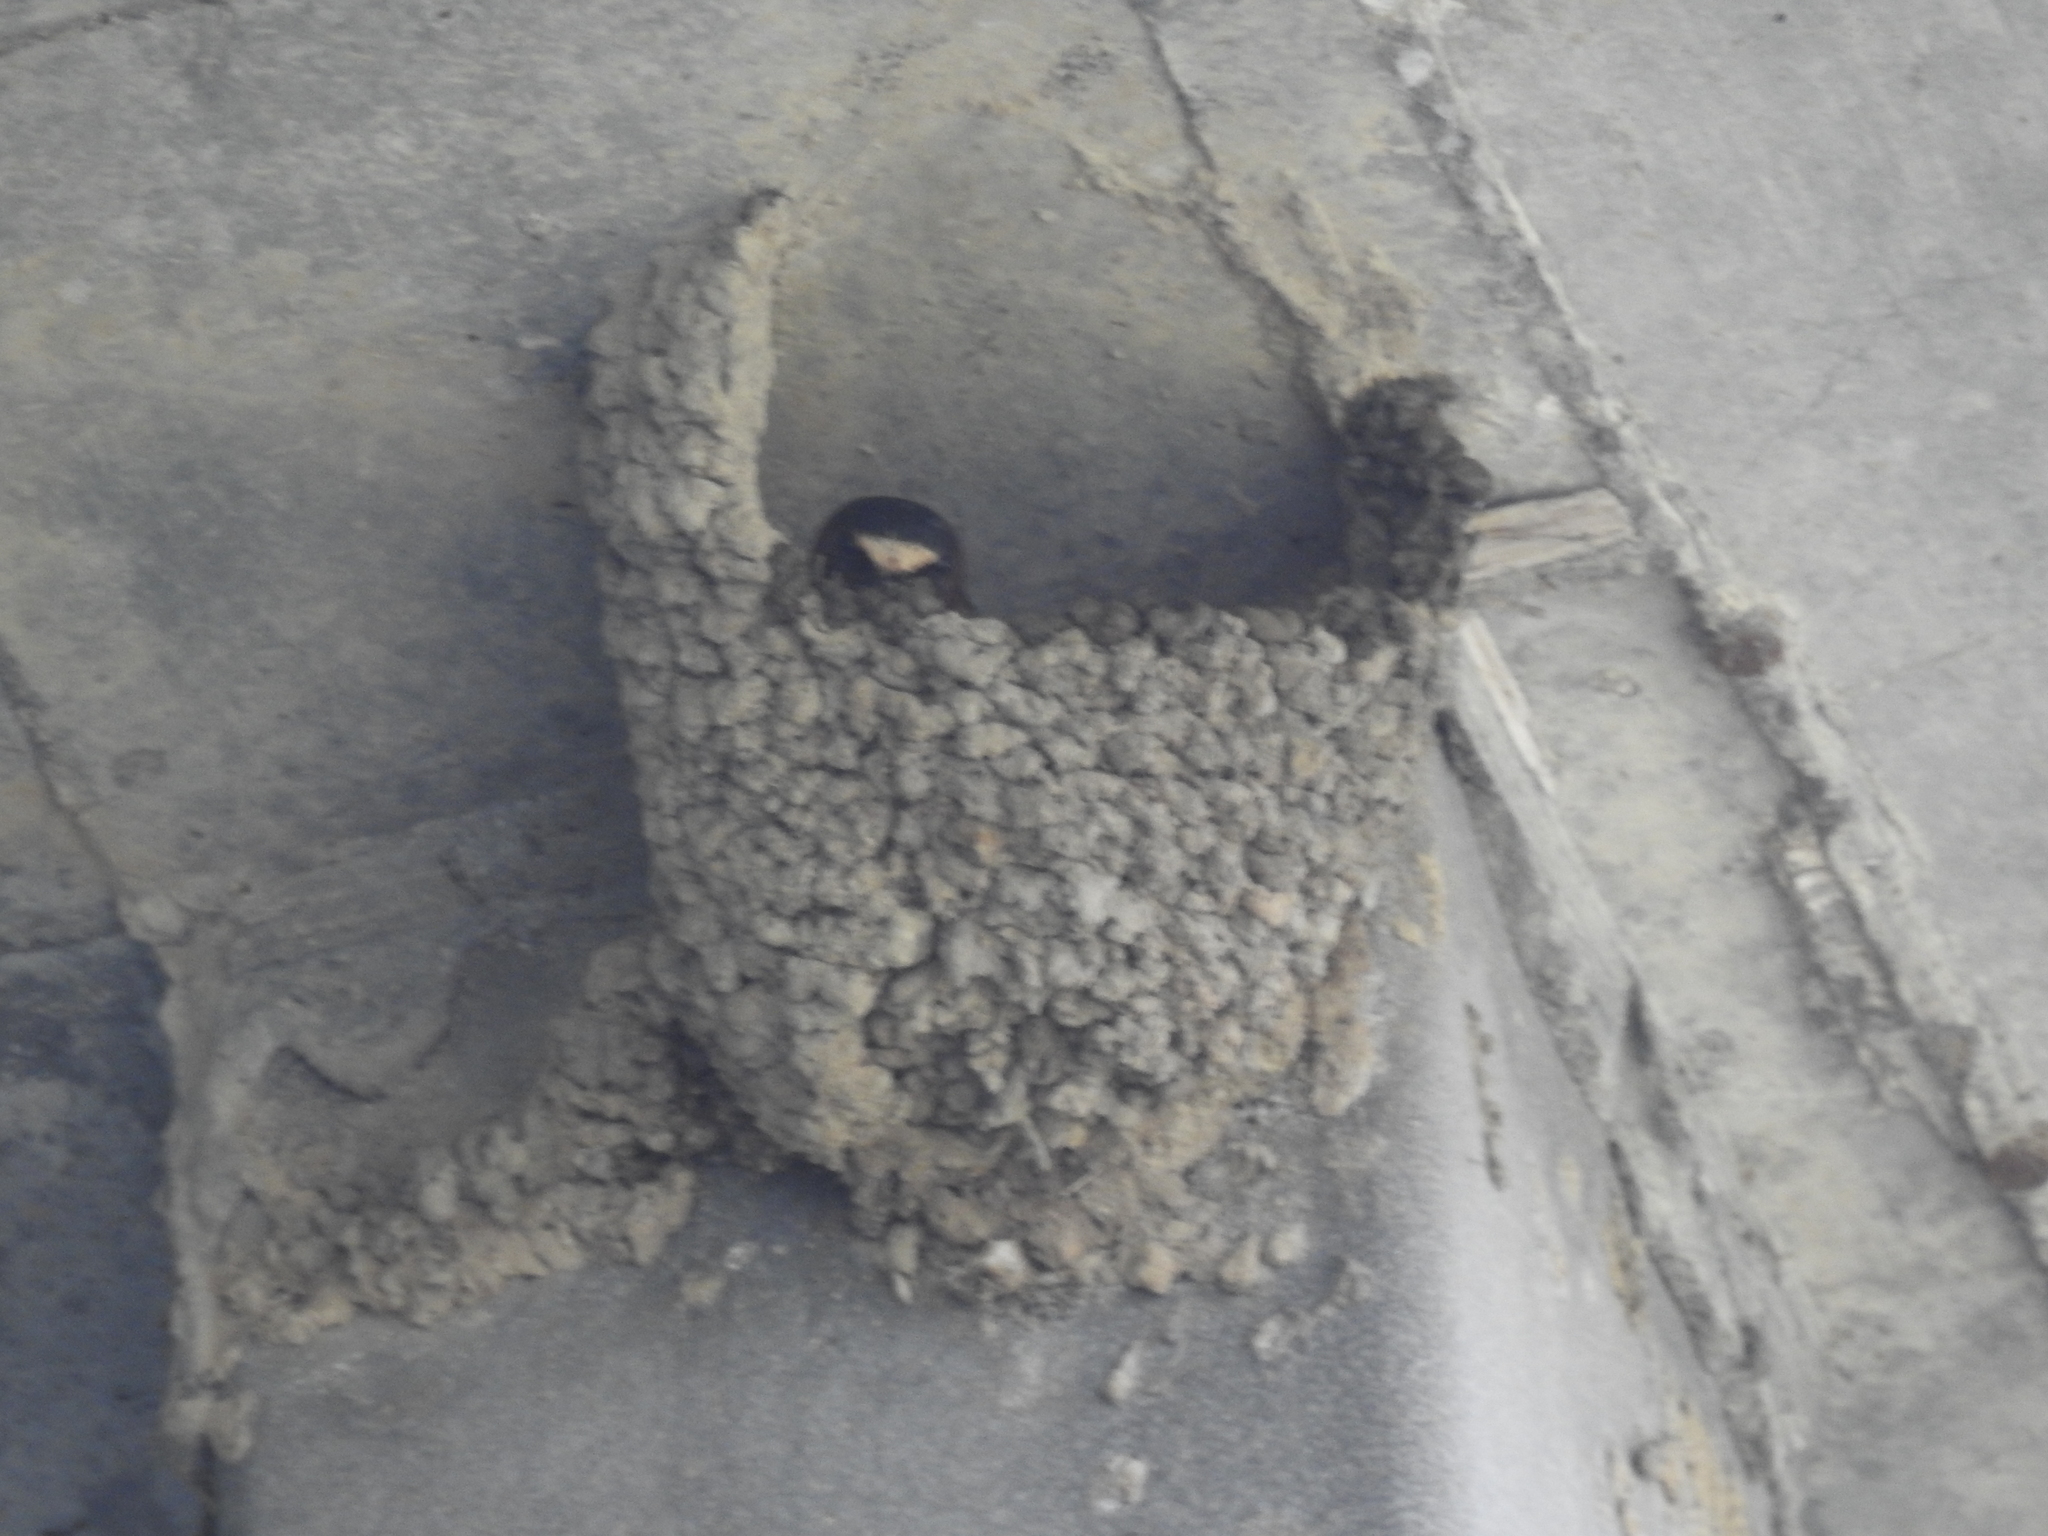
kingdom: Animalia
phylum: Chordata
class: Aves
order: Passeriformes
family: Hirundinidae
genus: Petrochelidon
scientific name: Petrochelidon pyrrhonota
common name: American cliff swallow
